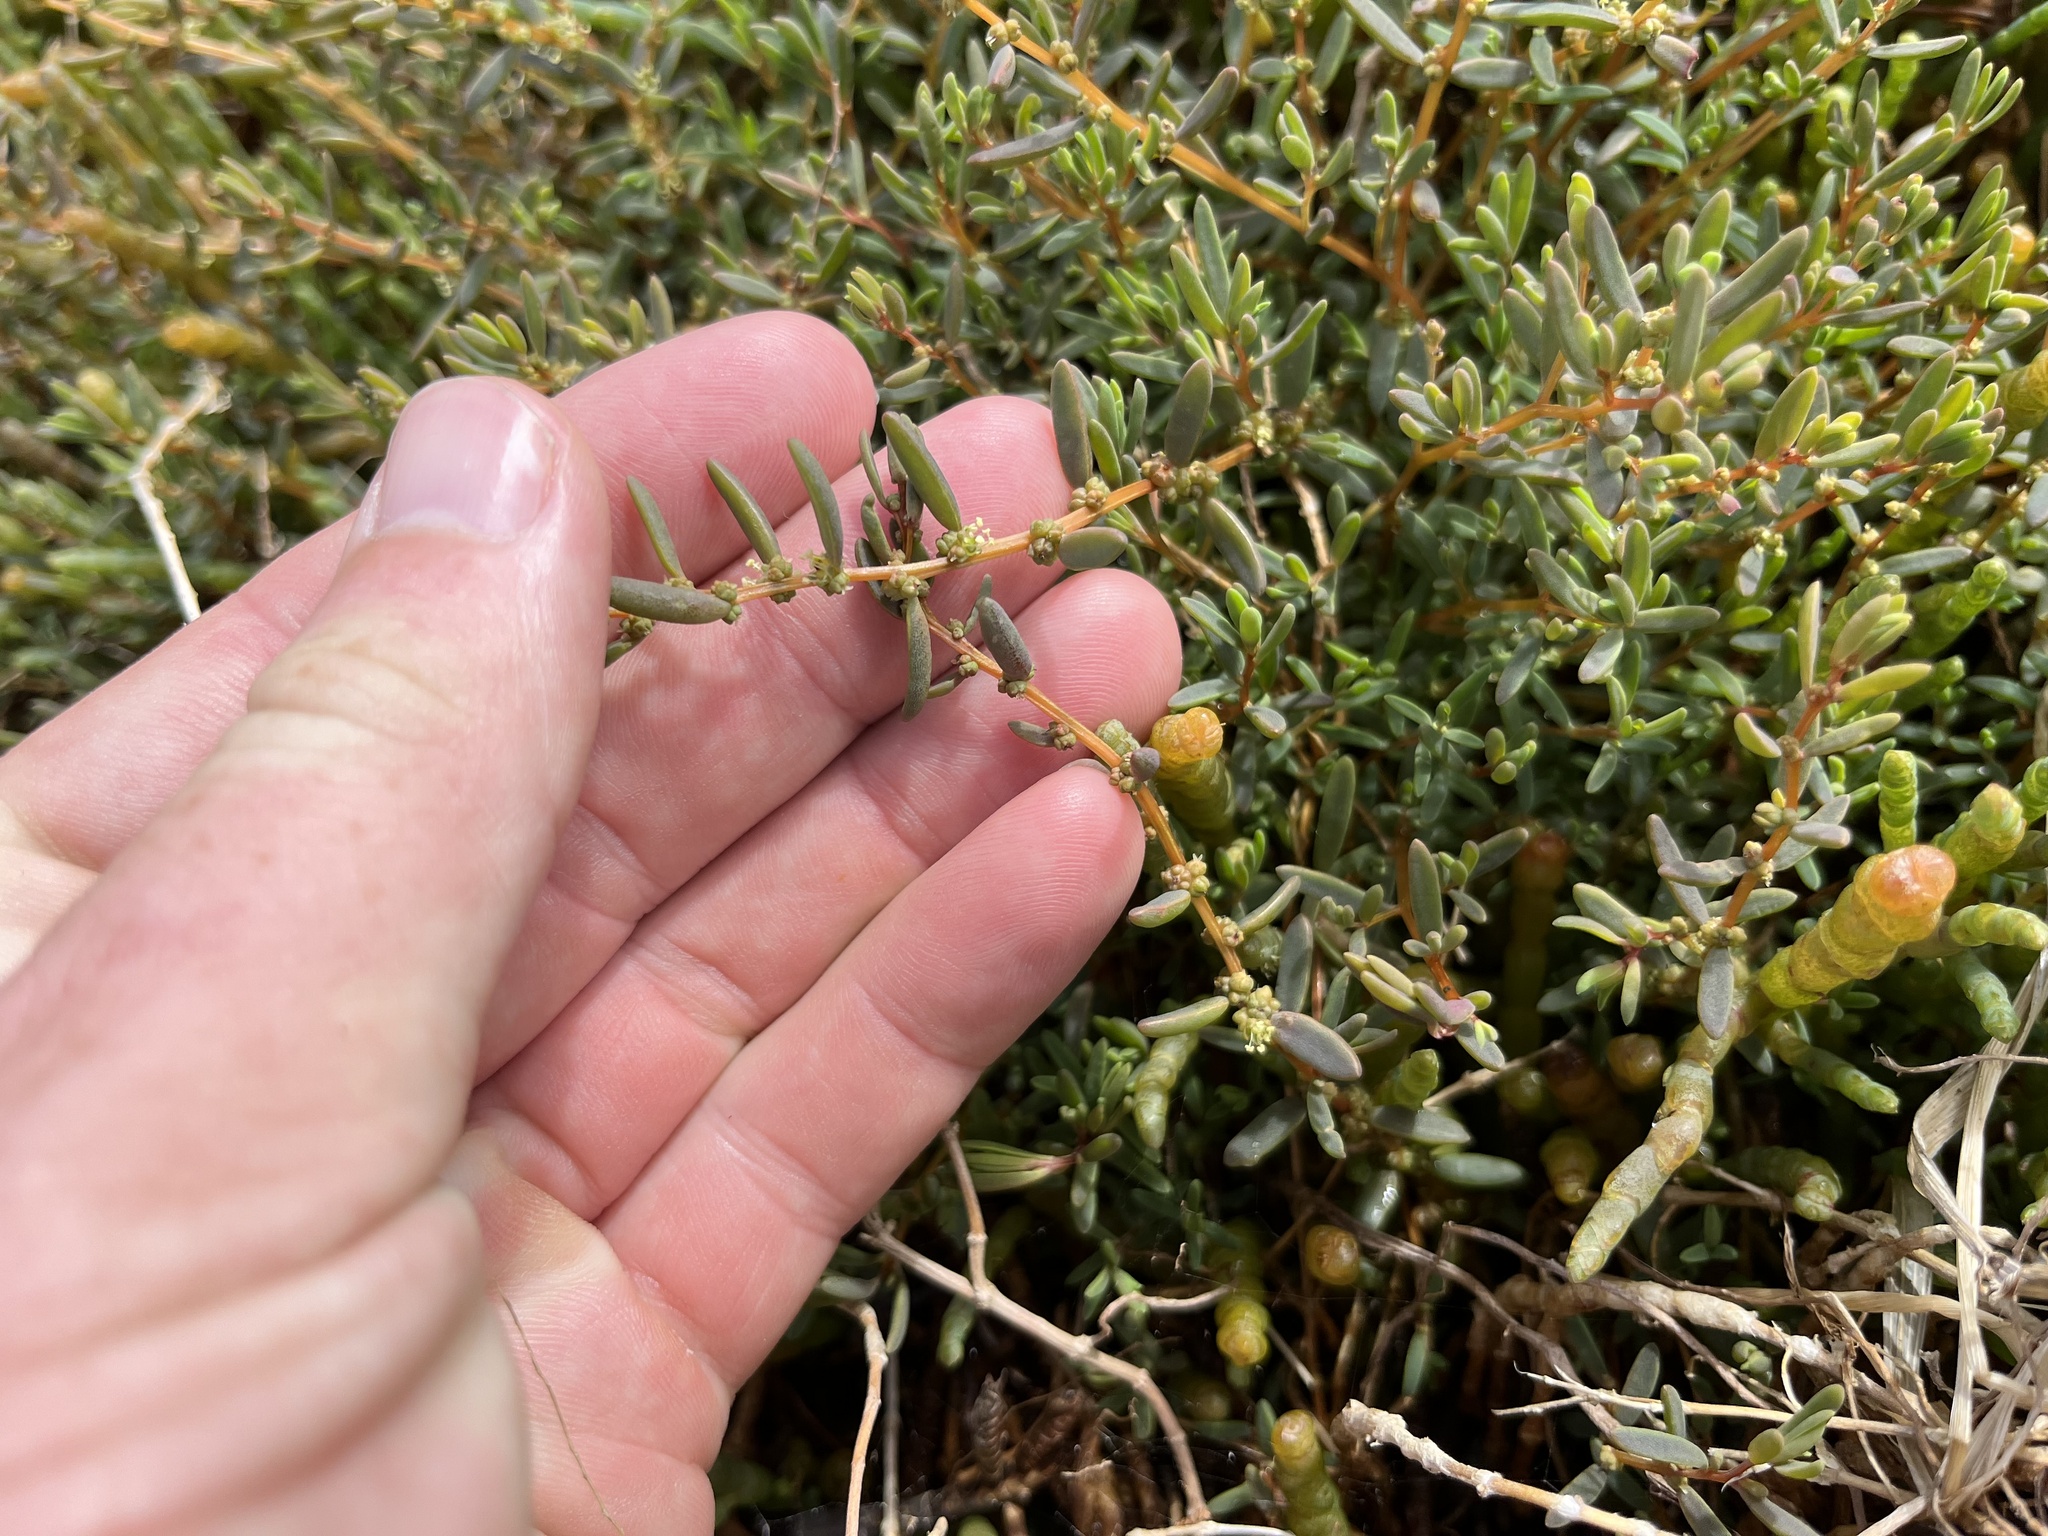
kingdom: Plantae
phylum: Tracheophyta
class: Magnoliopsida
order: Caryophyllales
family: Amaranthaceae
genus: Suaeda
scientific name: Suaeda novae-zelandiae
